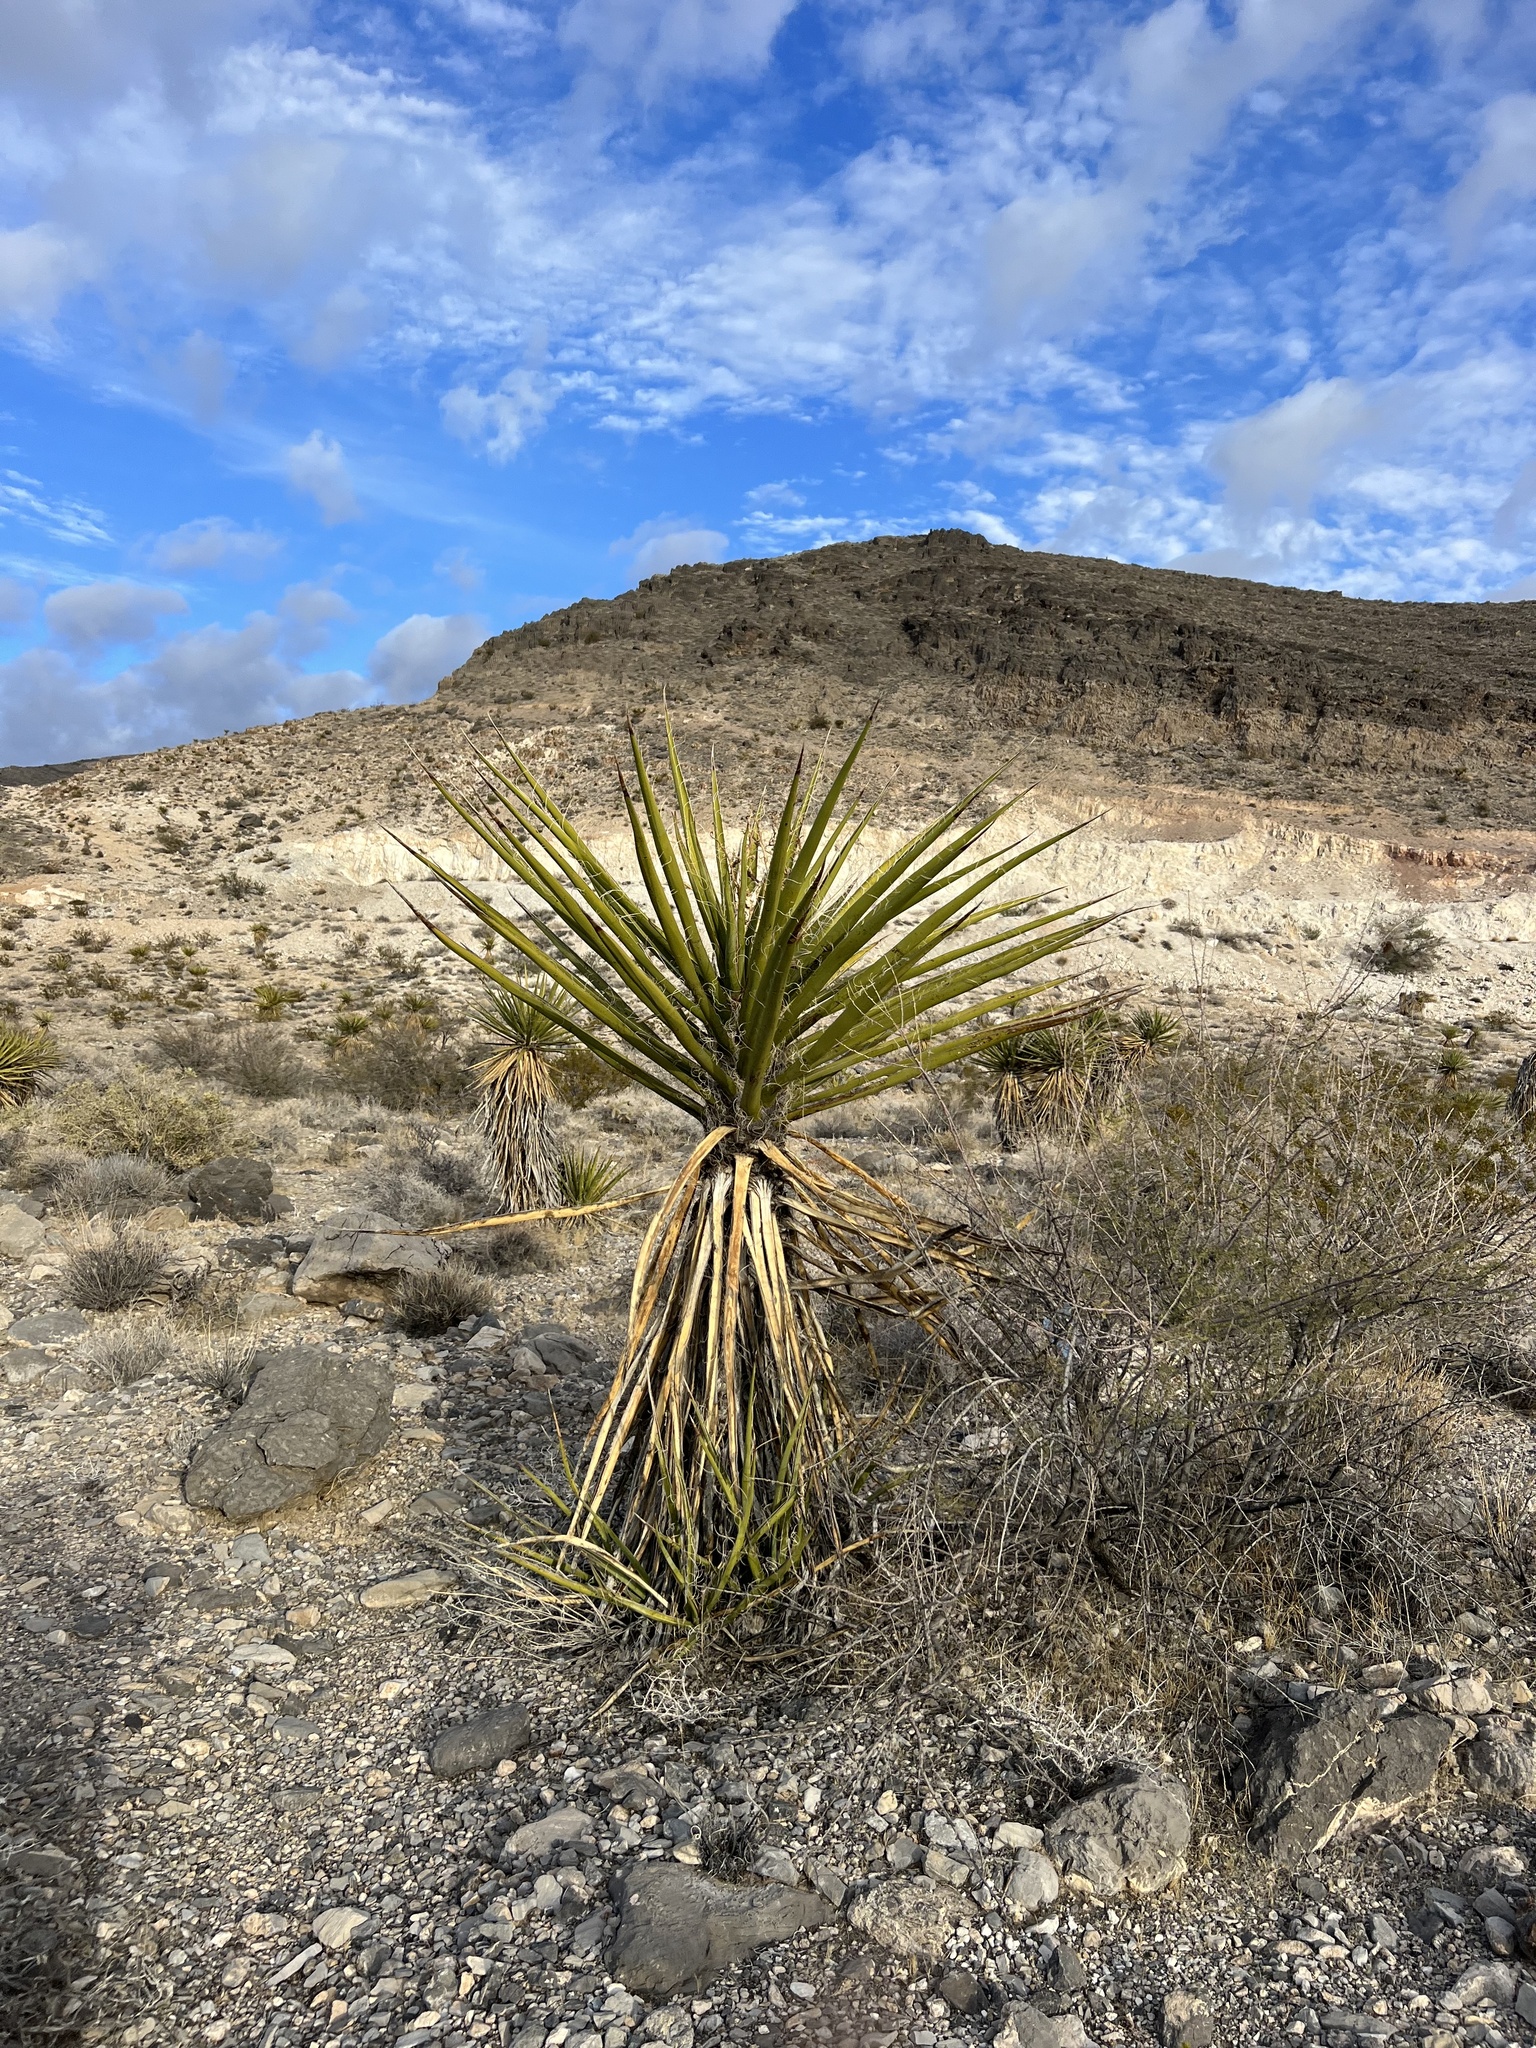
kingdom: Plantae
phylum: Tracheophyta
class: Liliopsida
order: Asparagales
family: Asparagaceae
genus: Yucca
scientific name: Yucca schidigera
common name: Mojave yucca
